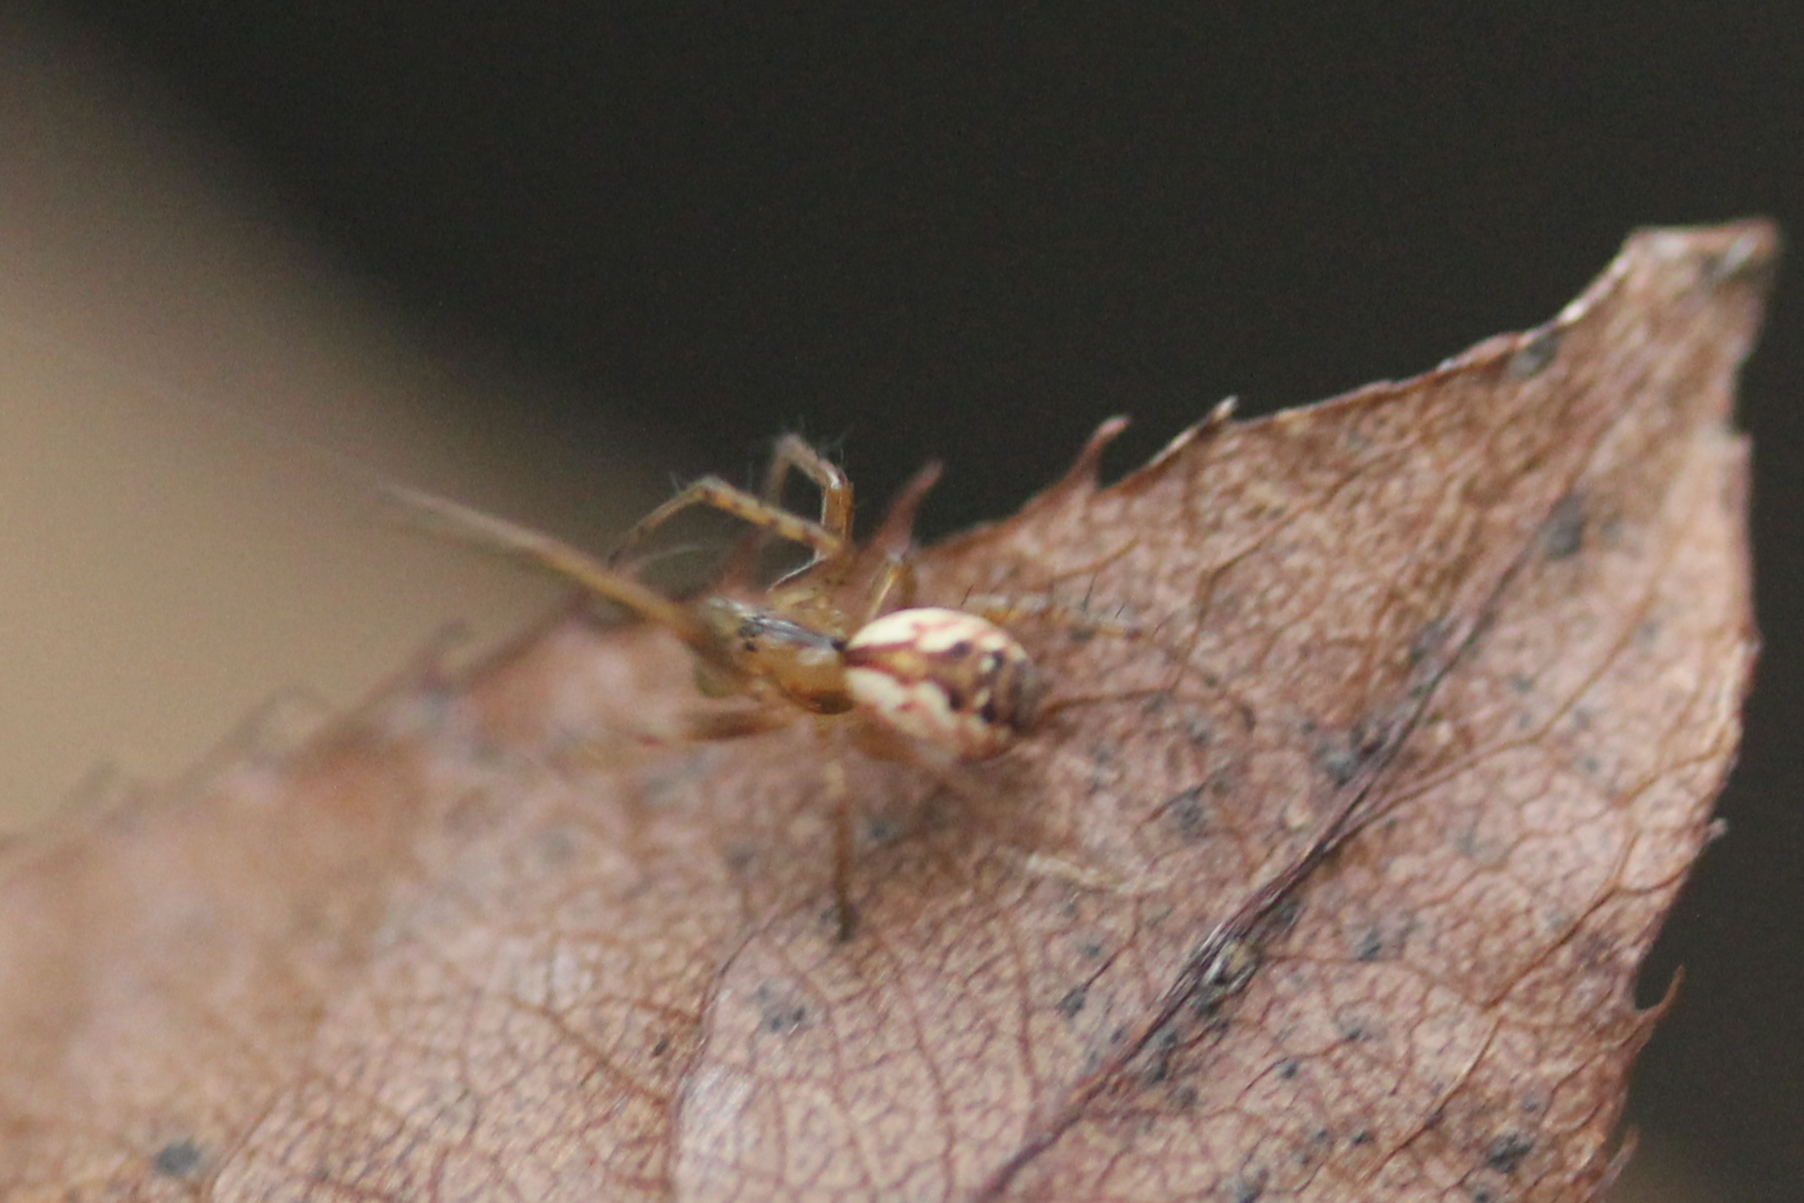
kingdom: Animalia
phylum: Arthropoda
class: Arachnida
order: Araneae
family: Araneidae
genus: Mangora
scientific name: Mangora placida
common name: Tuft-legged orbweaver
